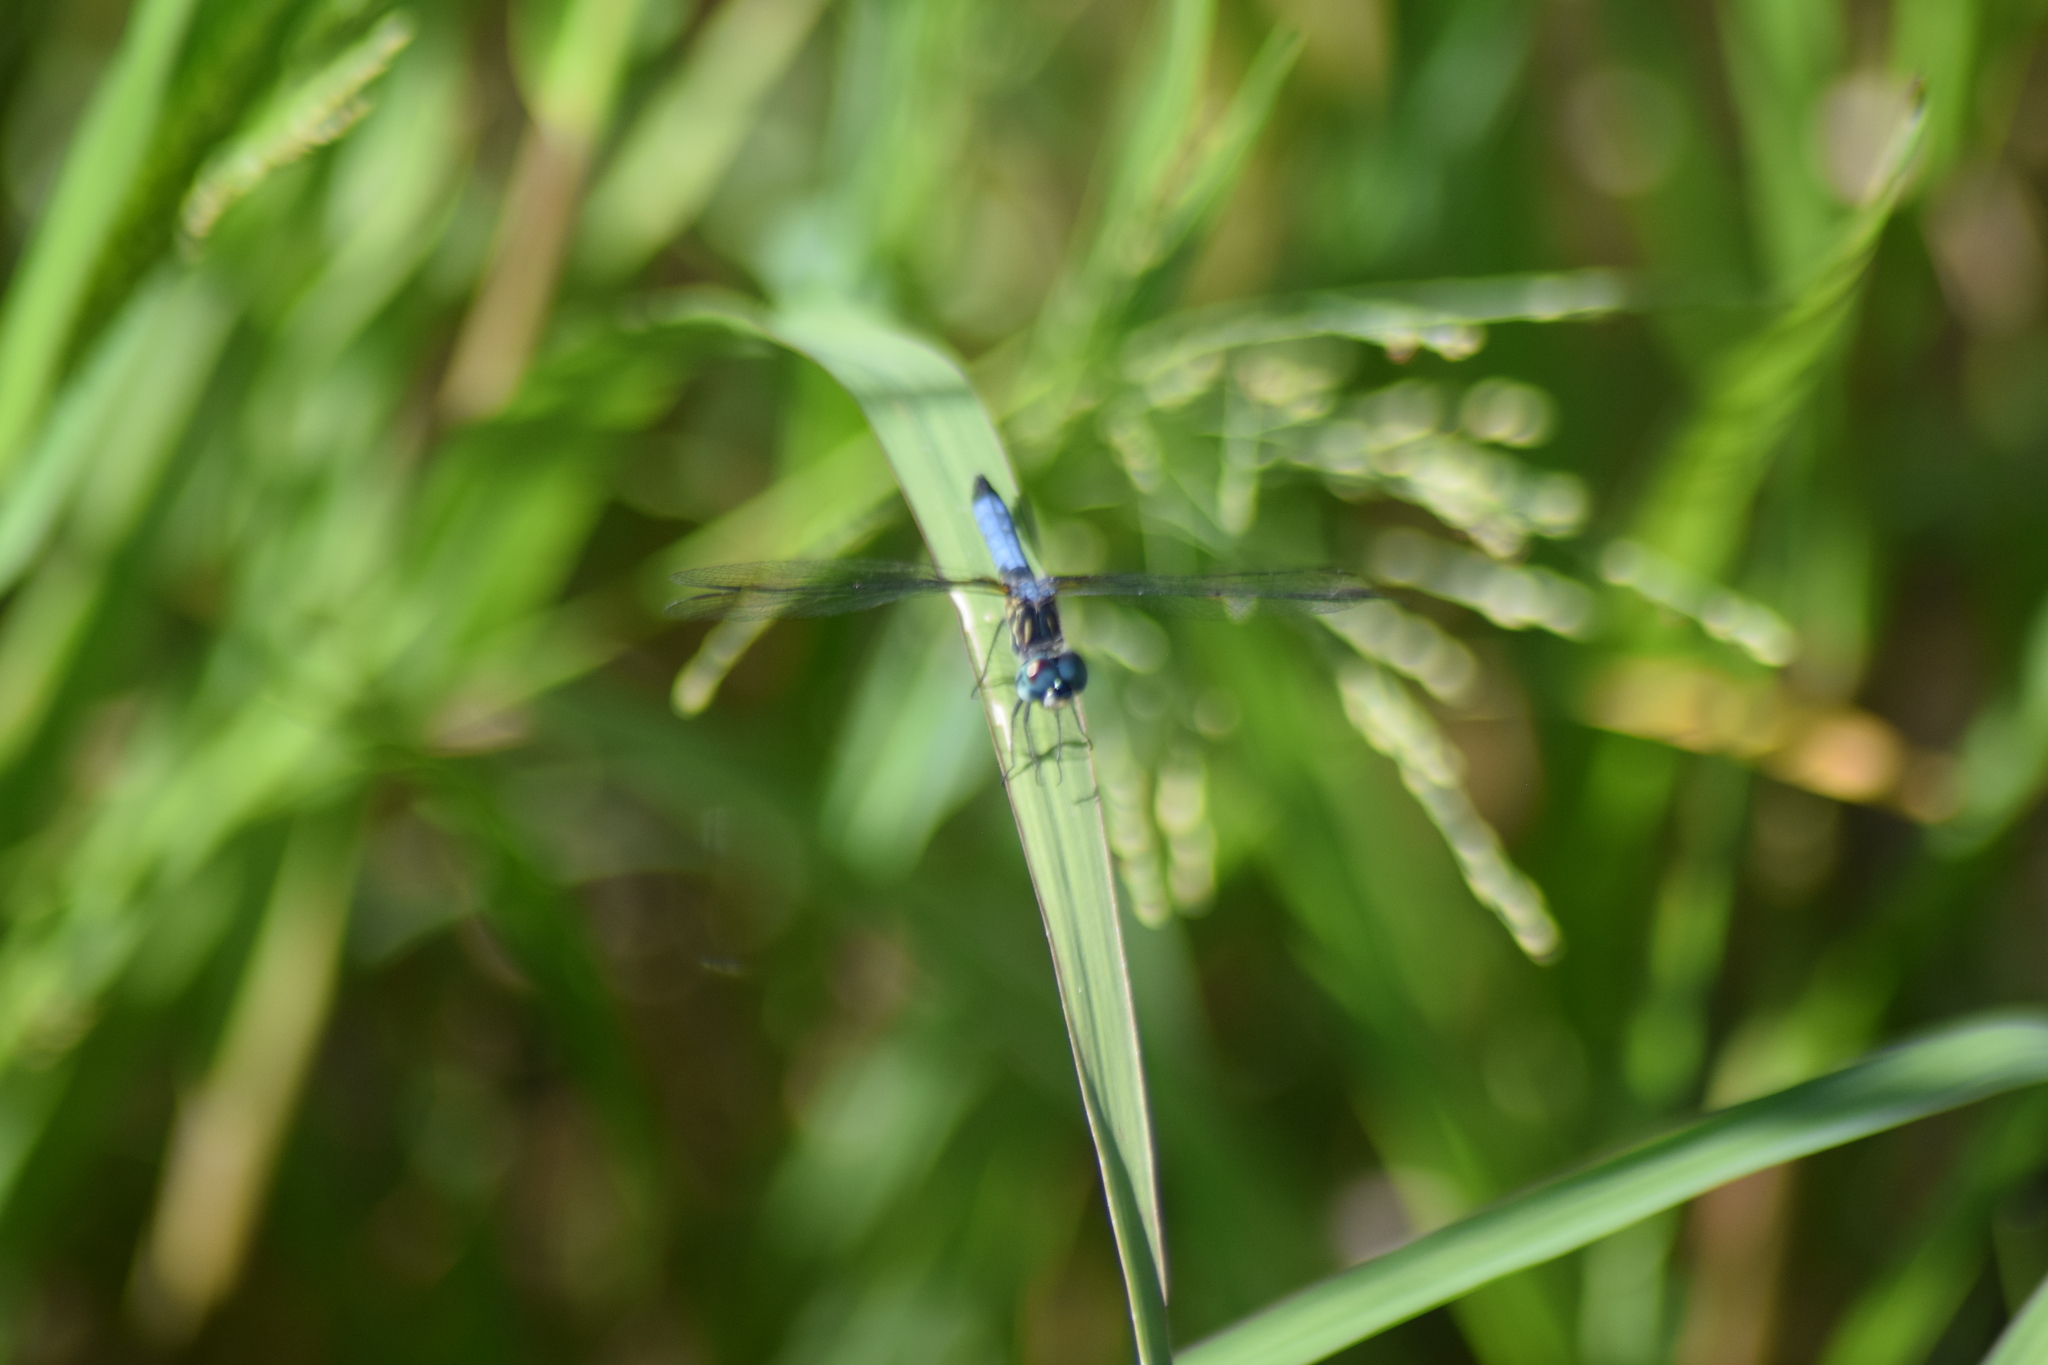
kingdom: Animalia
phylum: Arthropoda
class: Insecta
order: Odonata
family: Libellulidae
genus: Pachydiplax
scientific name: Pachydiplax longipennis
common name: Blue dasher
